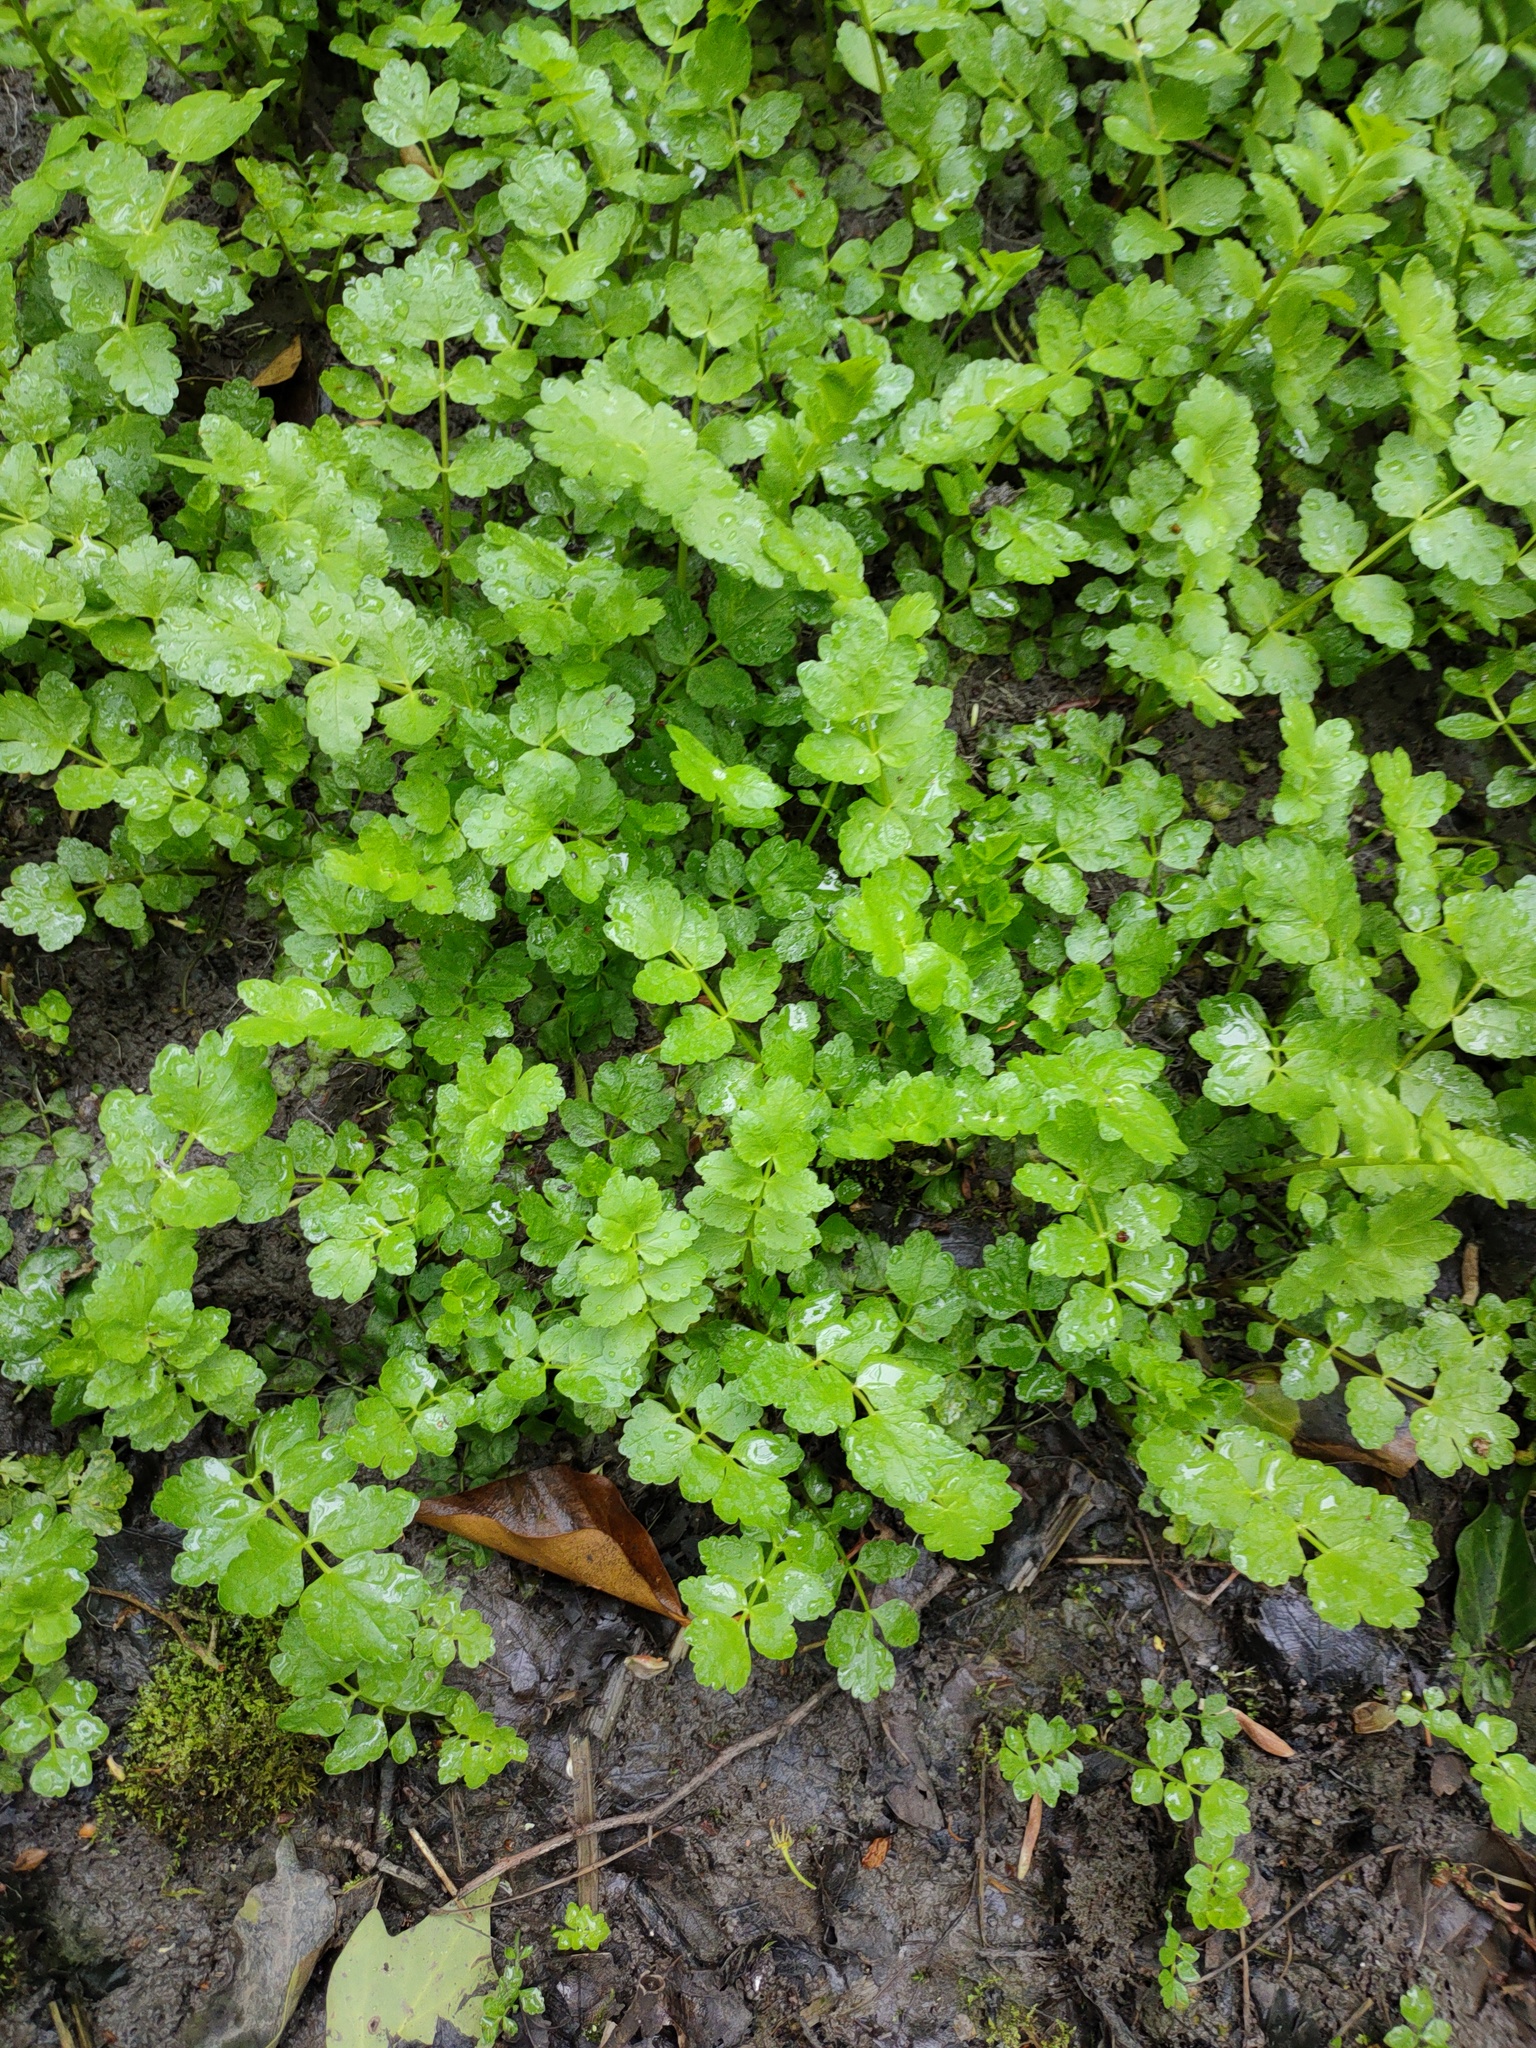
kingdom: Plantae
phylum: Tracheophyta
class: Magnoliopsida
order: Apiales
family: Apiaceae
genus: Helosciadium
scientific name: Helosciadium nodiflorum
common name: Fool's-watercress
